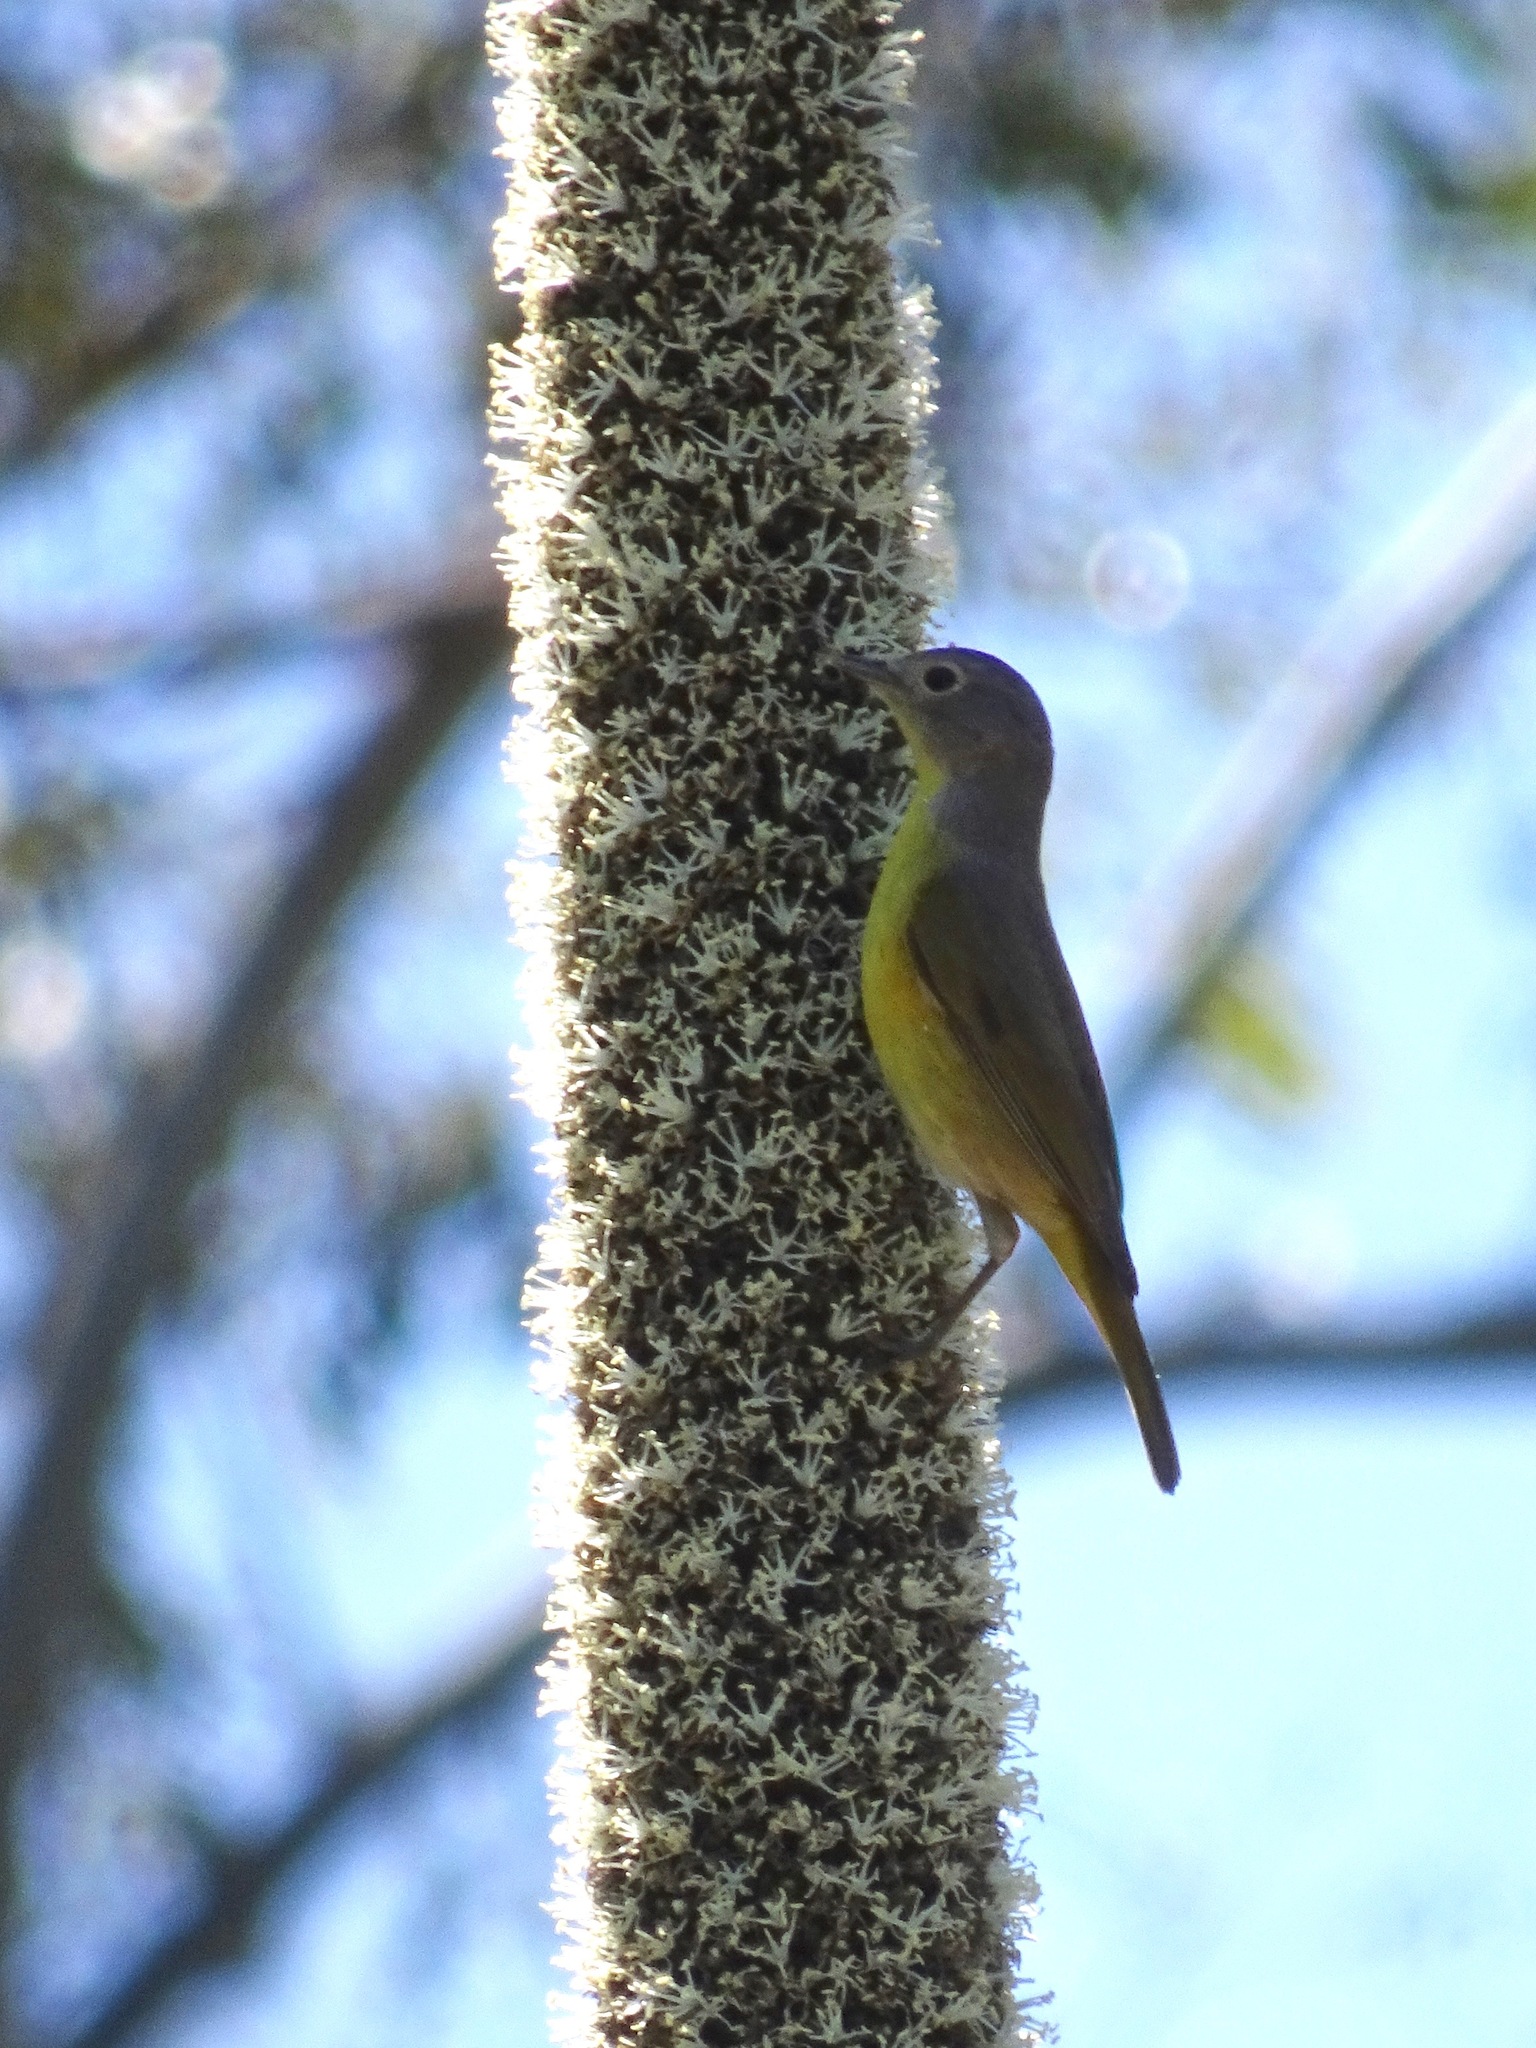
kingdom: Animalia
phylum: Chordata
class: Aves
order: Passeriformes
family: Parulidae
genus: Leiothlypis
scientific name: Leiothlypis ruficapilla
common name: Nashville warbler
